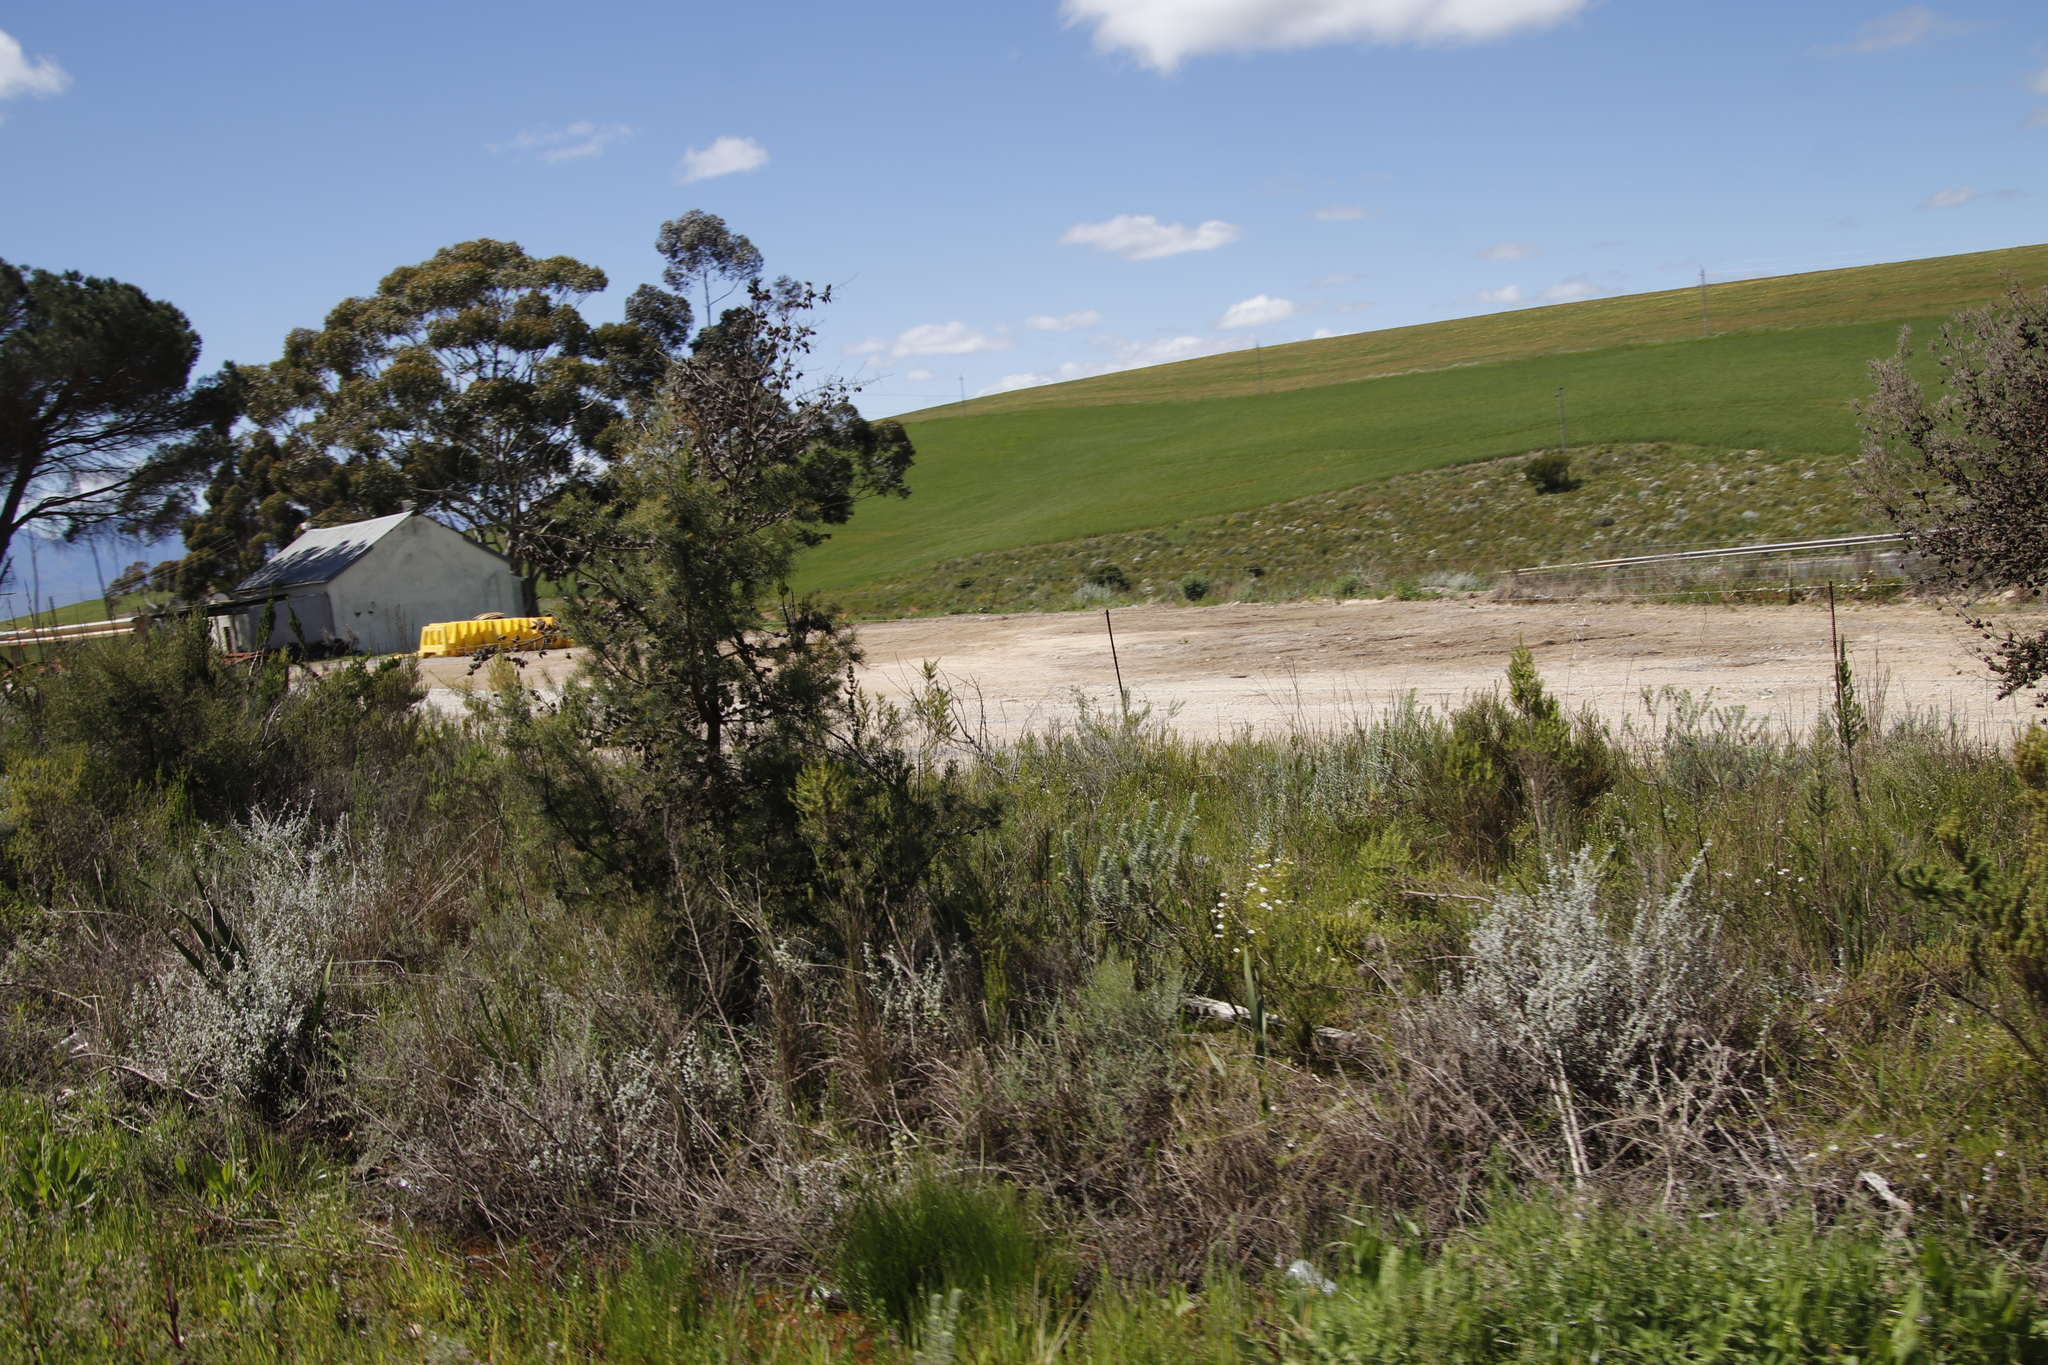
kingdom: Plantae
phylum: Tracheophyta
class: Magnoliopsida
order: Proteales
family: Proteaceae
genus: Hakea
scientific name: Hakea sericea
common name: Needle bush
